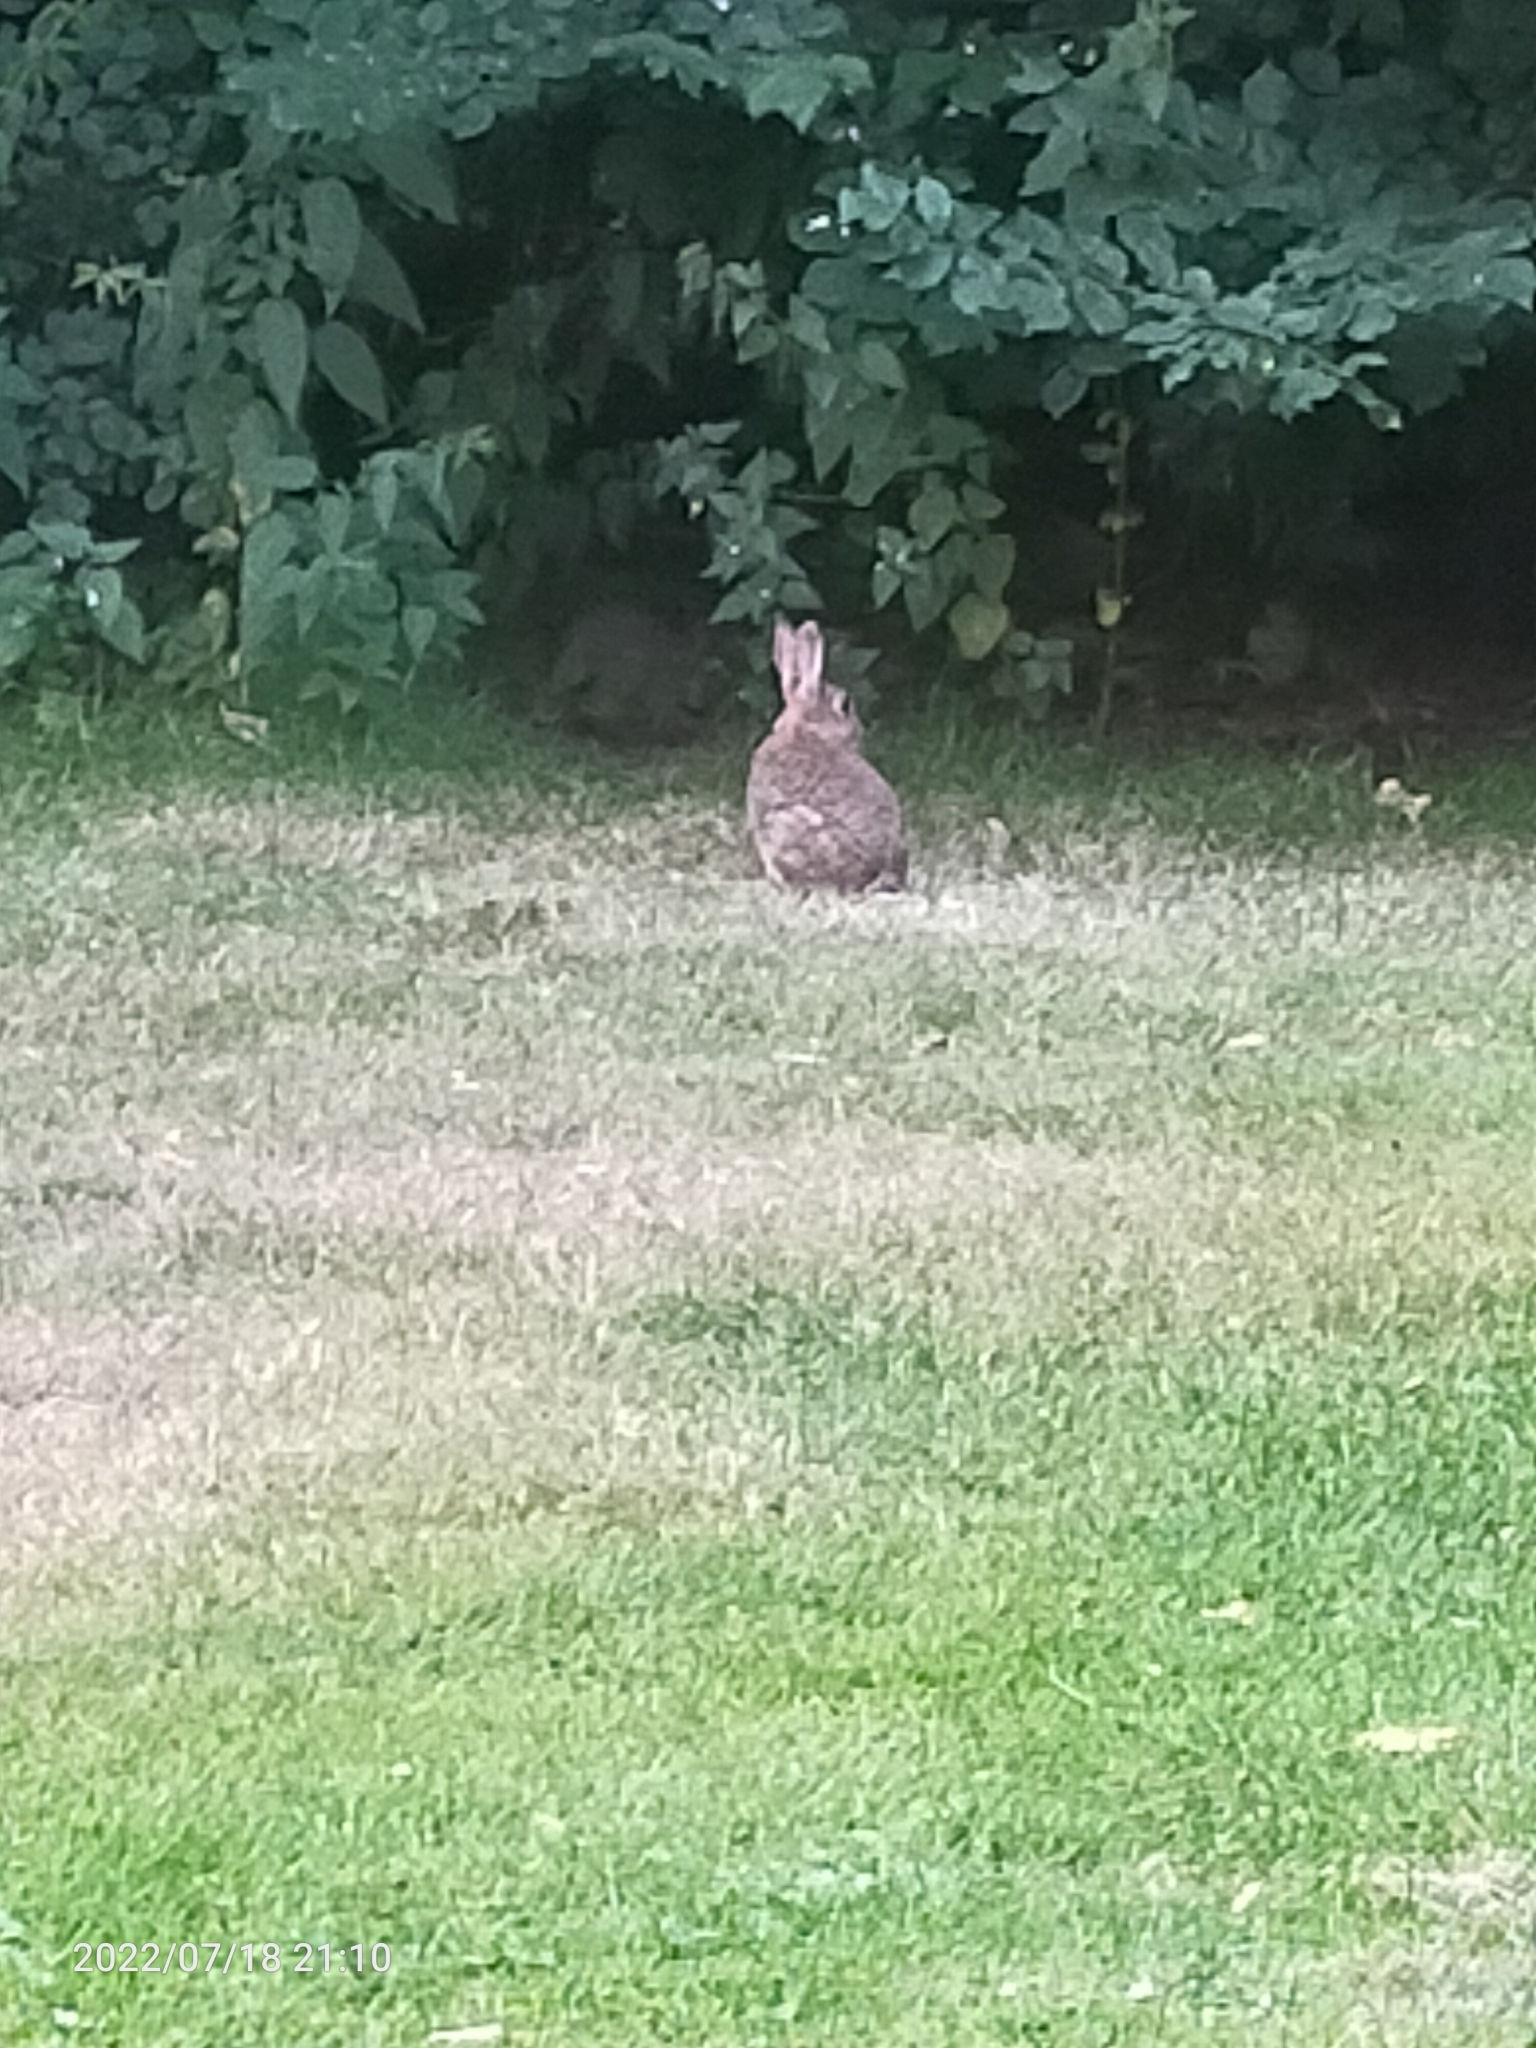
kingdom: Animalia
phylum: Chordata
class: Mammalia
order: Lagomorpha
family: Leporidae
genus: Oryctolagus
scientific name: Oryctolagus cuniculus
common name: European rabbit
